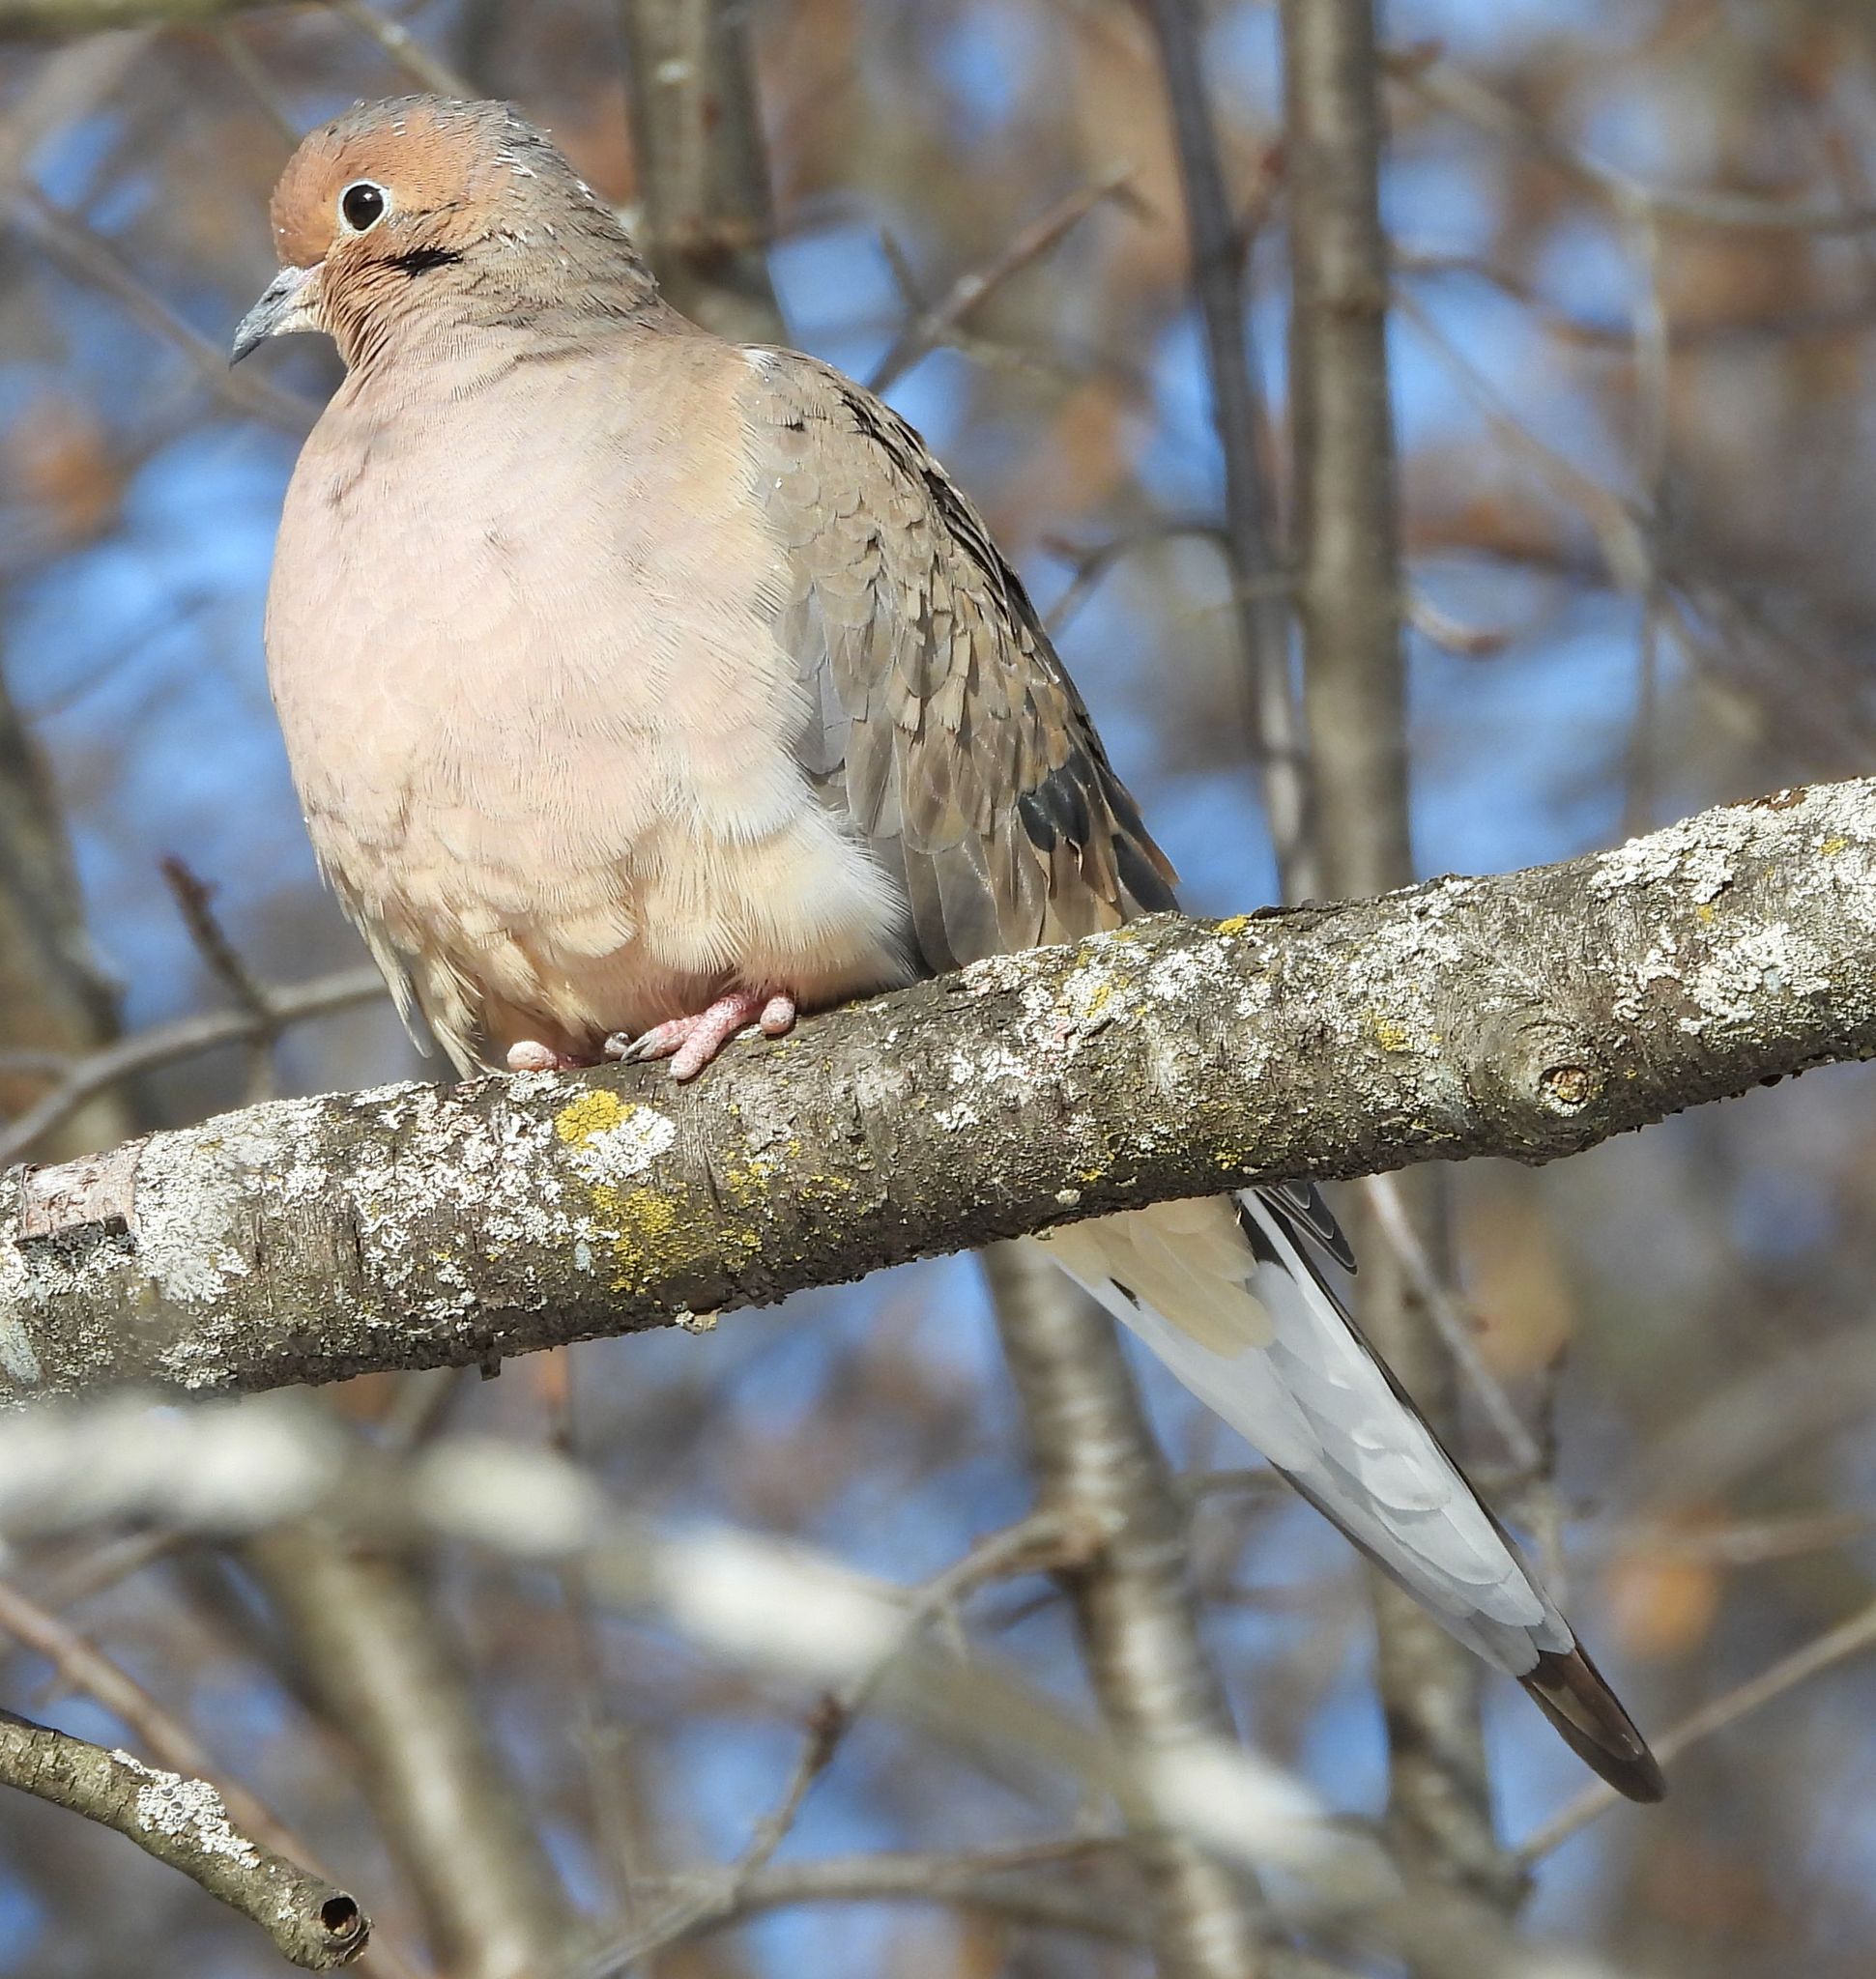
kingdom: Animalia
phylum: Chordata
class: Aves
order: Columbiformes
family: Columbidae
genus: Zenaida
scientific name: Zenaida macroura
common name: Mourning dove
